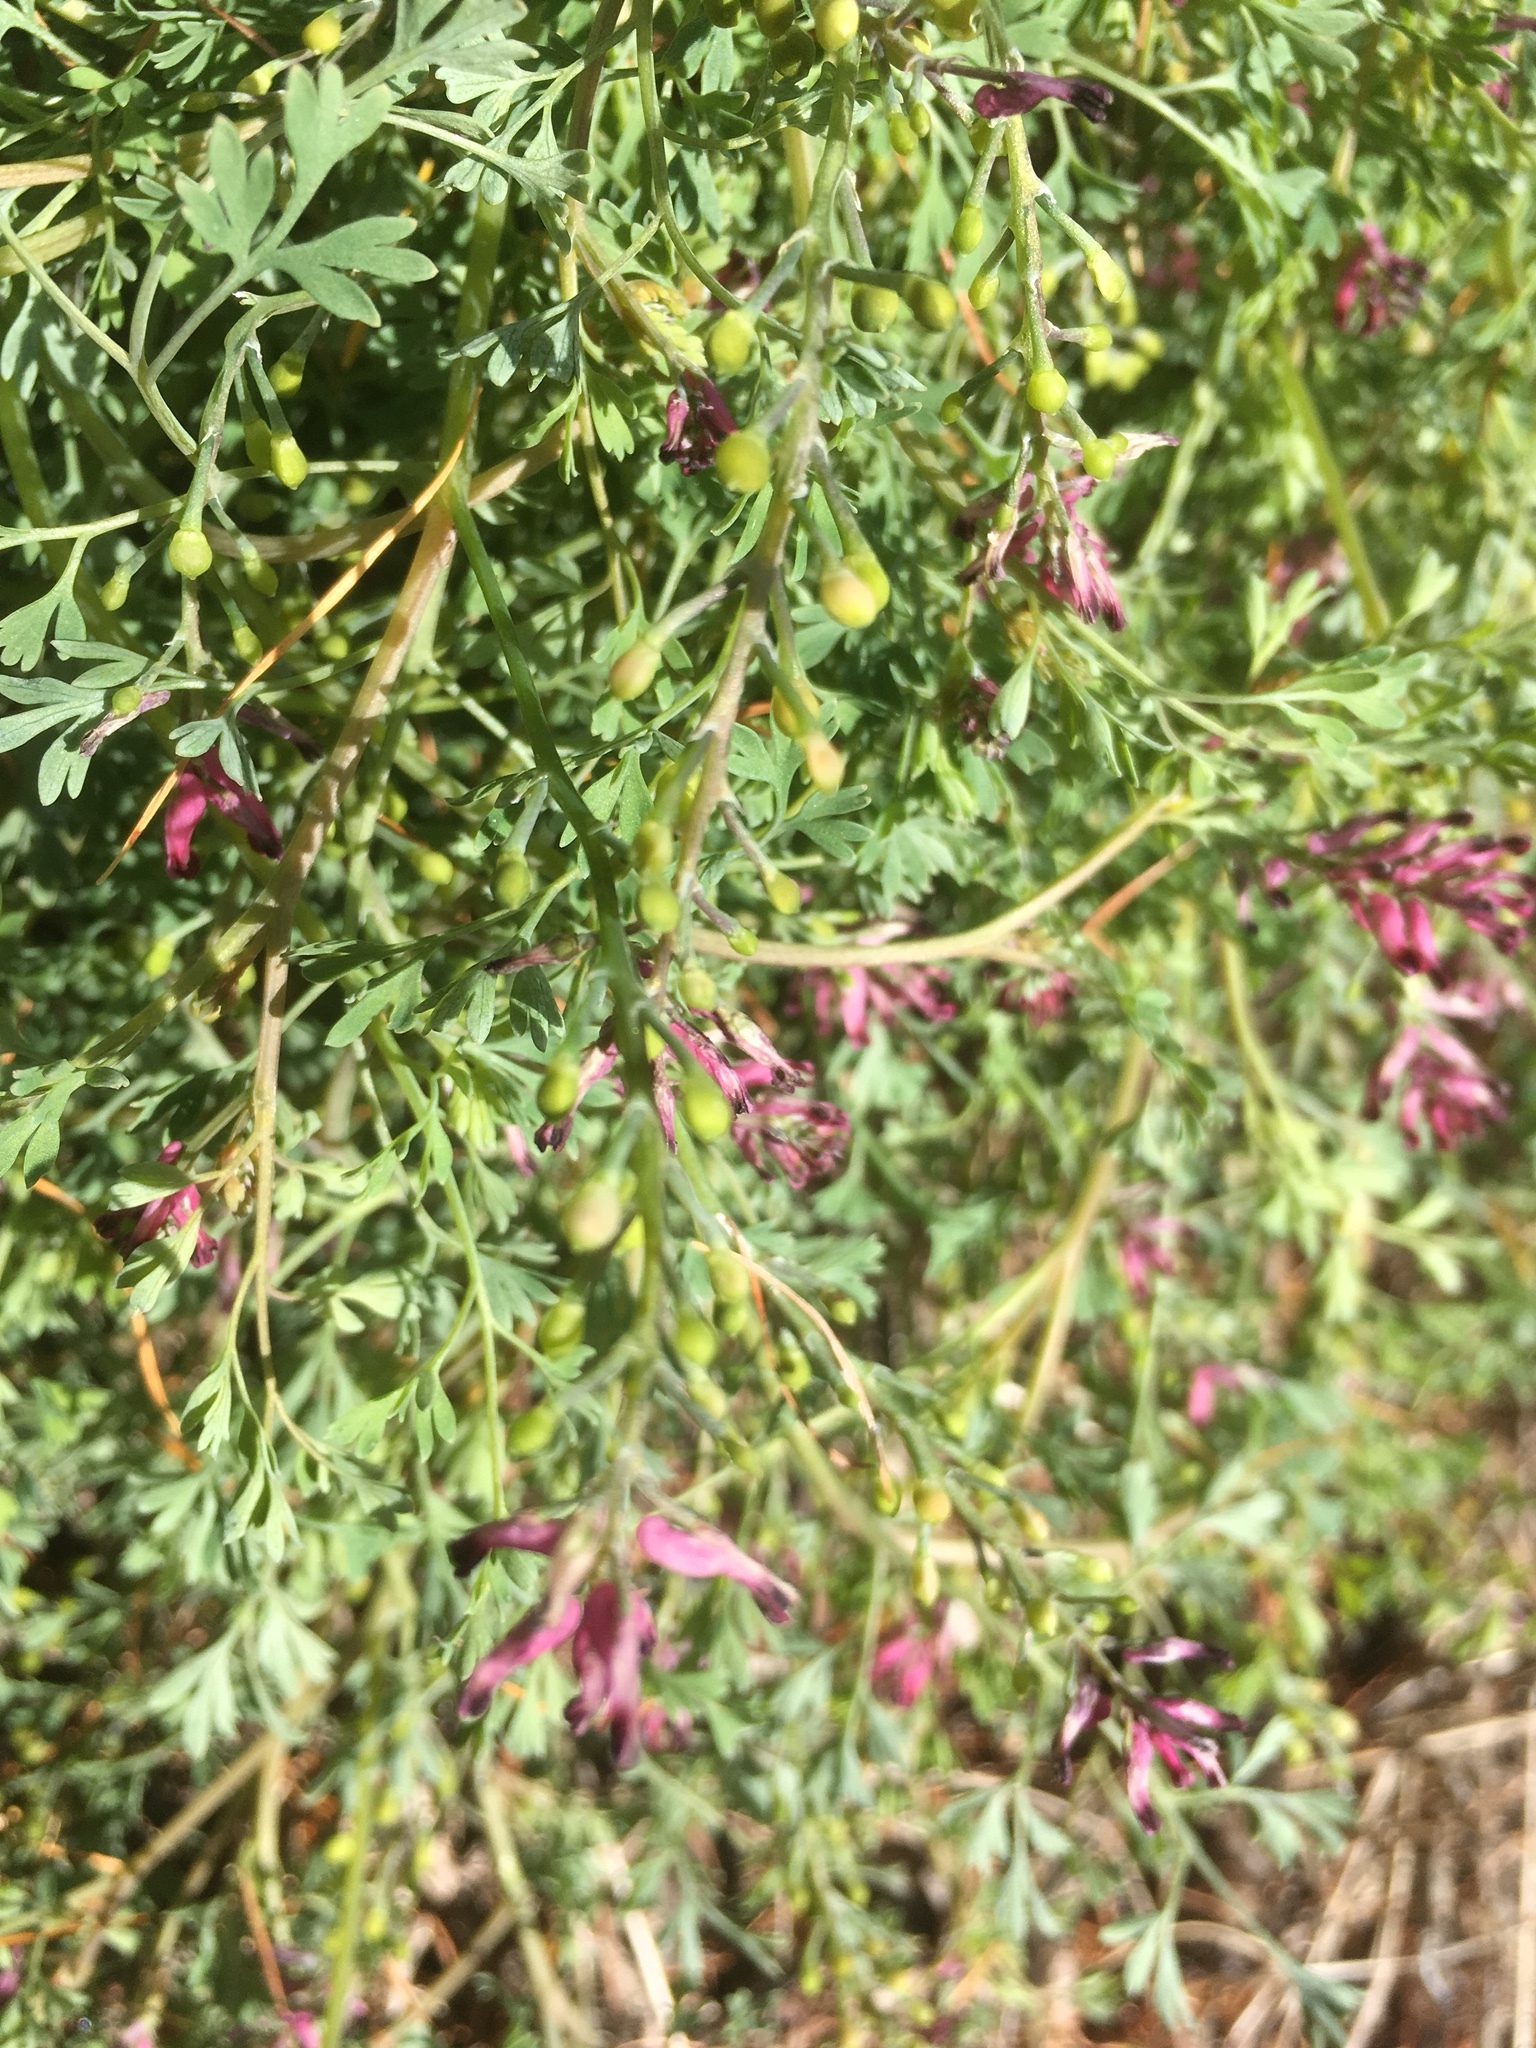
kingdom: Plantae
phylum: Tracheophyta
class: Magnoliopsida
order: Ranunculales
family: Papaveraceae
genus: Fumaria
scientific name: Fumaria schleicheri
